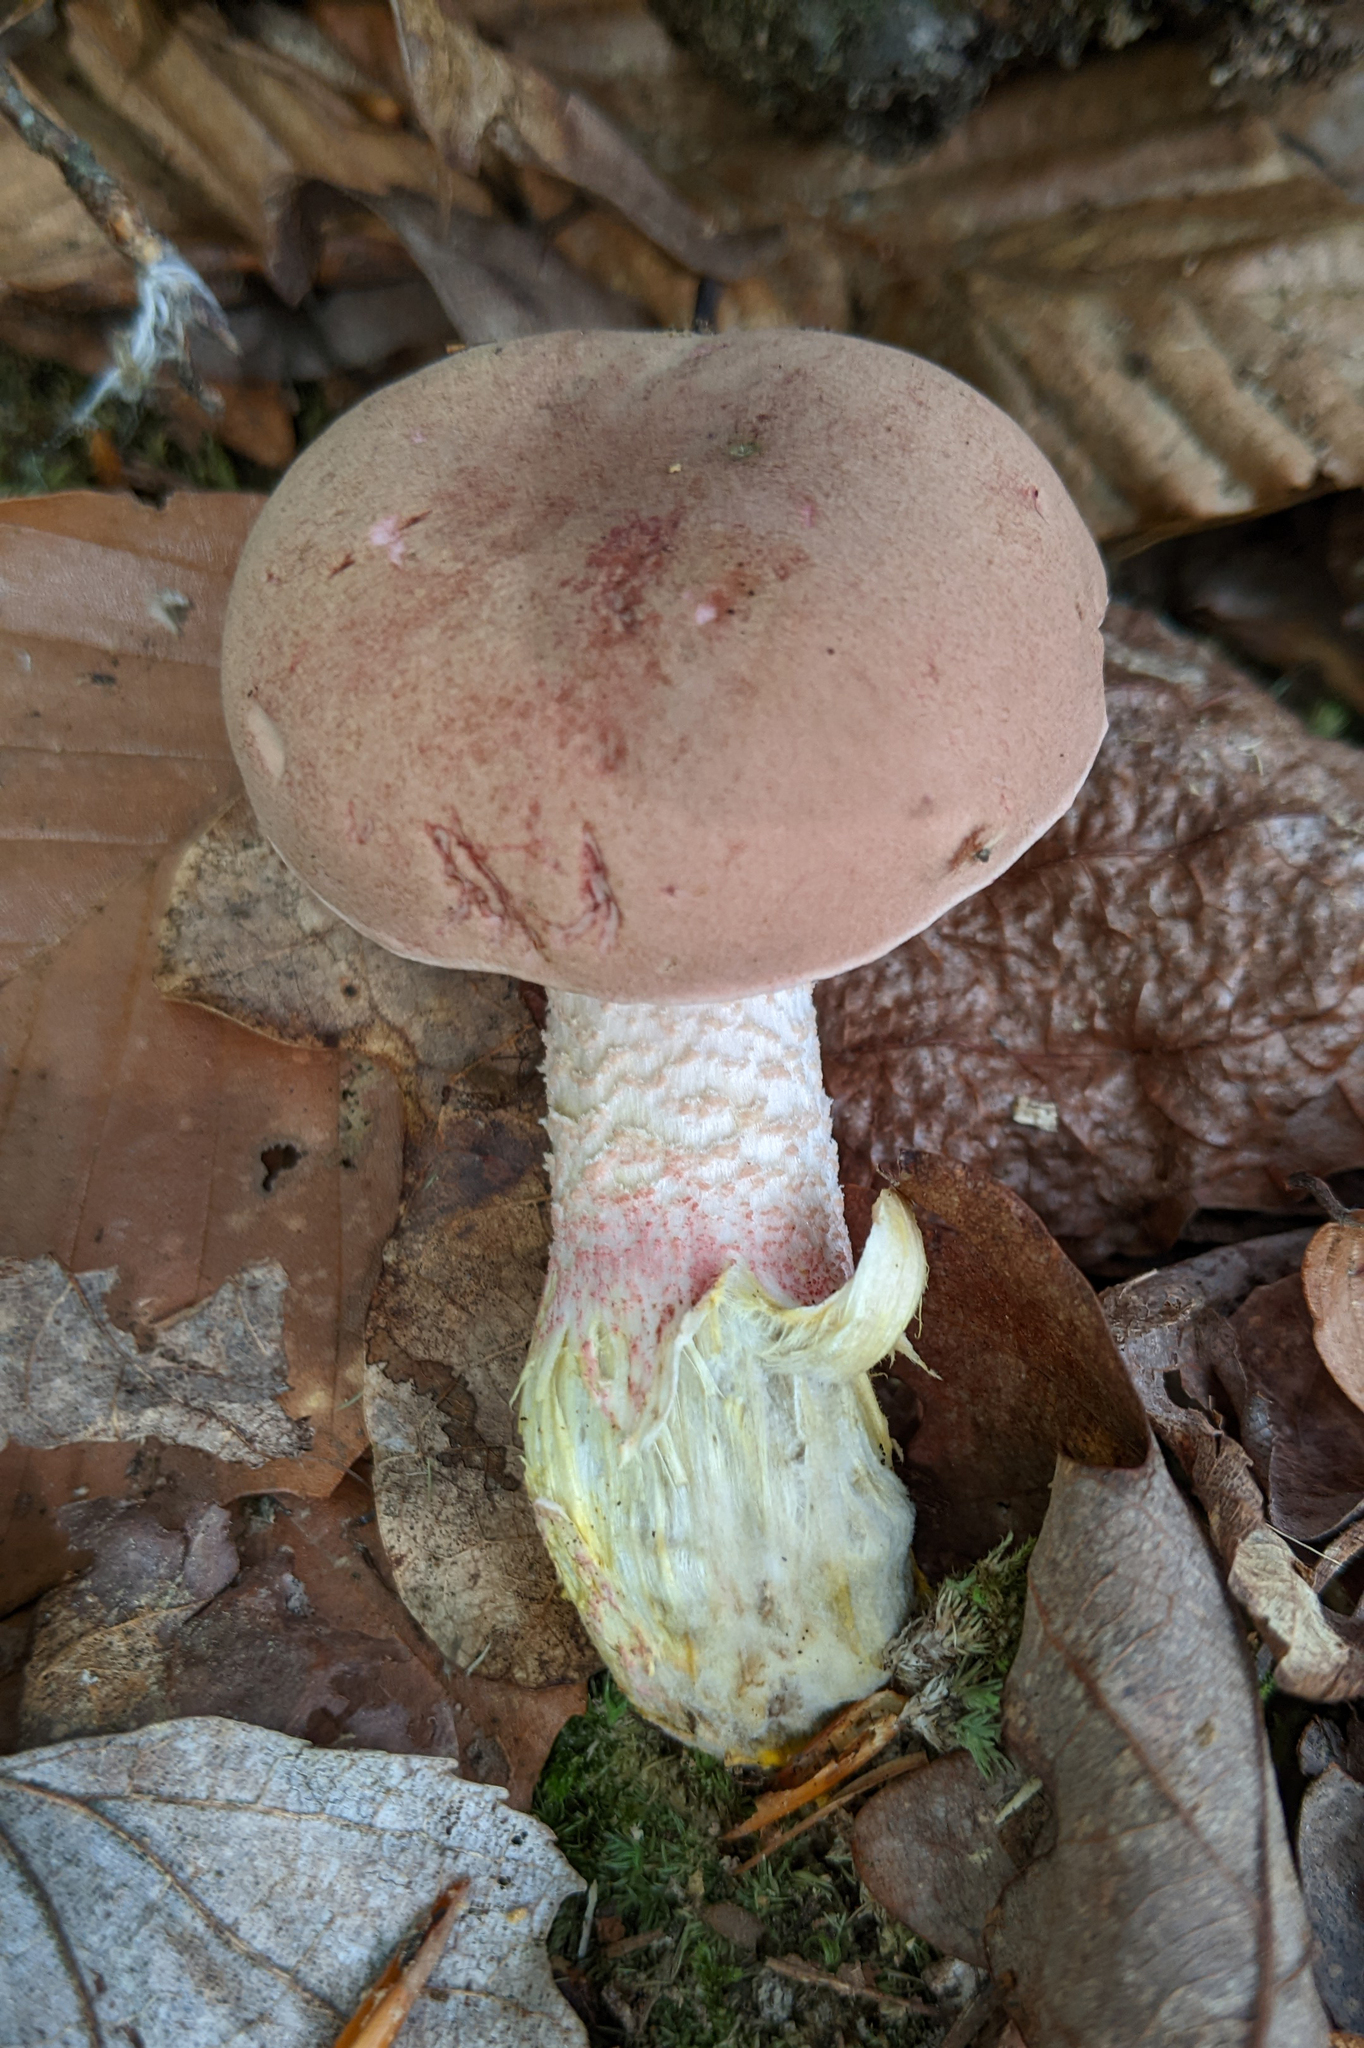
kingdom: Fungi
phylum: Basidiomycota
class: Agaricomycetes
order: Boletales
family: Boletaceae
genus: Harrya
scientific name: Harrya chromipes
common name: Chrome-footed bolete
